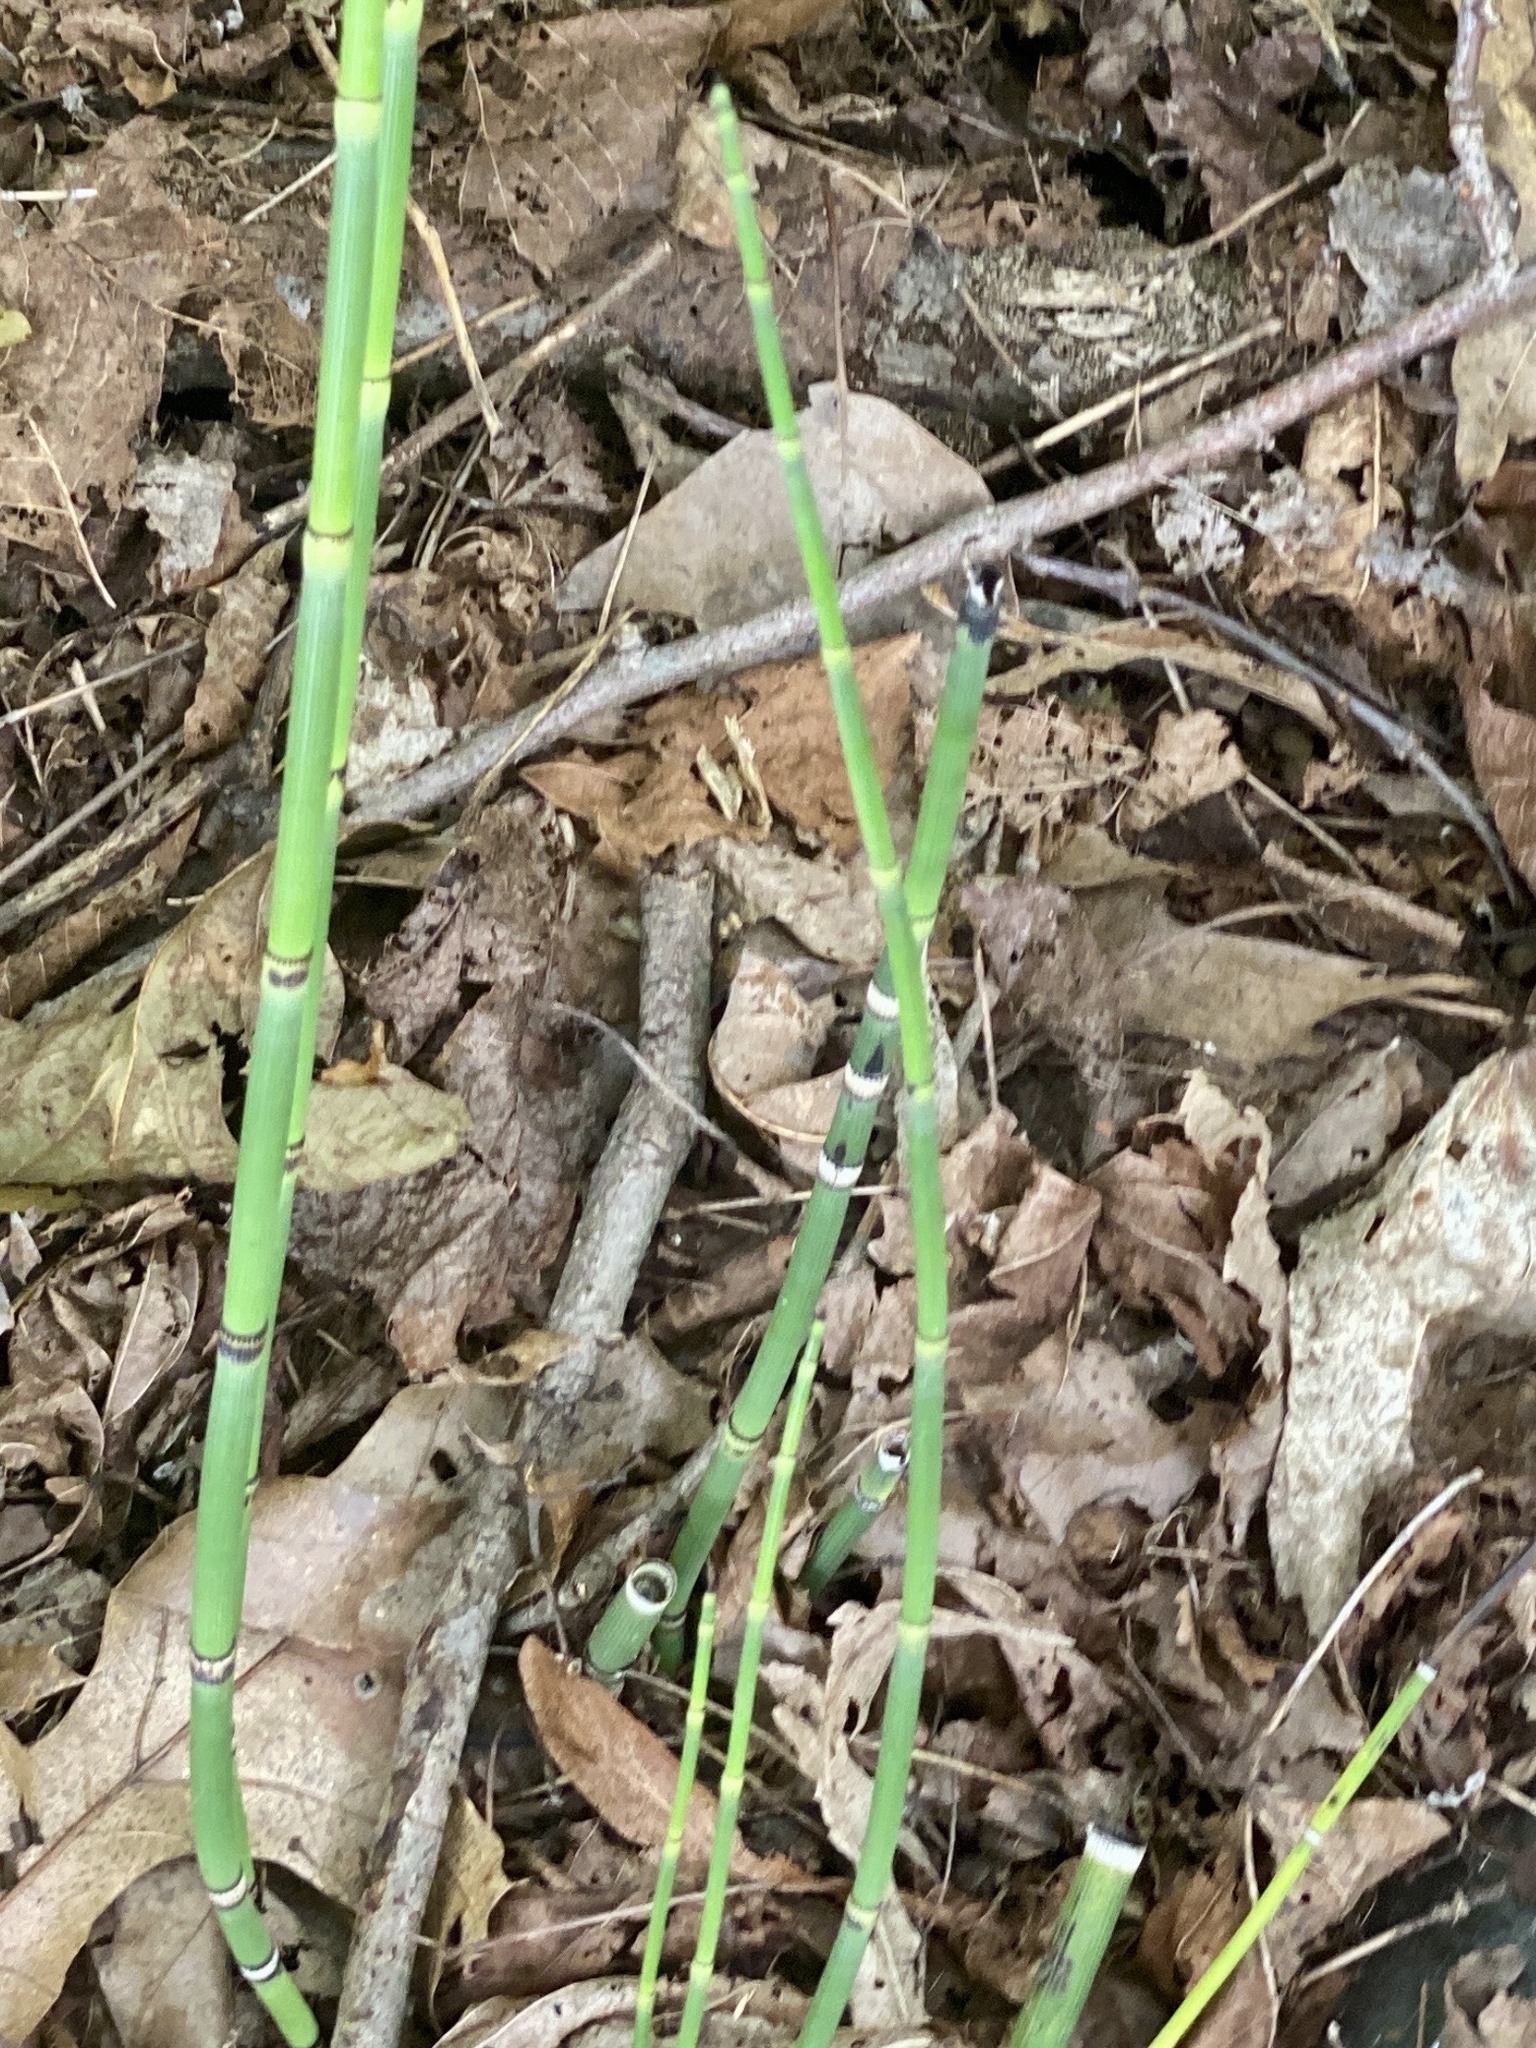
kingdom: Plantae
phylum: Tracheophyta
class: Polypodiopsida
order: Equisetales
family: Equisetaceae
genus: Equisetum
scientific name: Equisetum hyemale
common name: Rough horsetail
